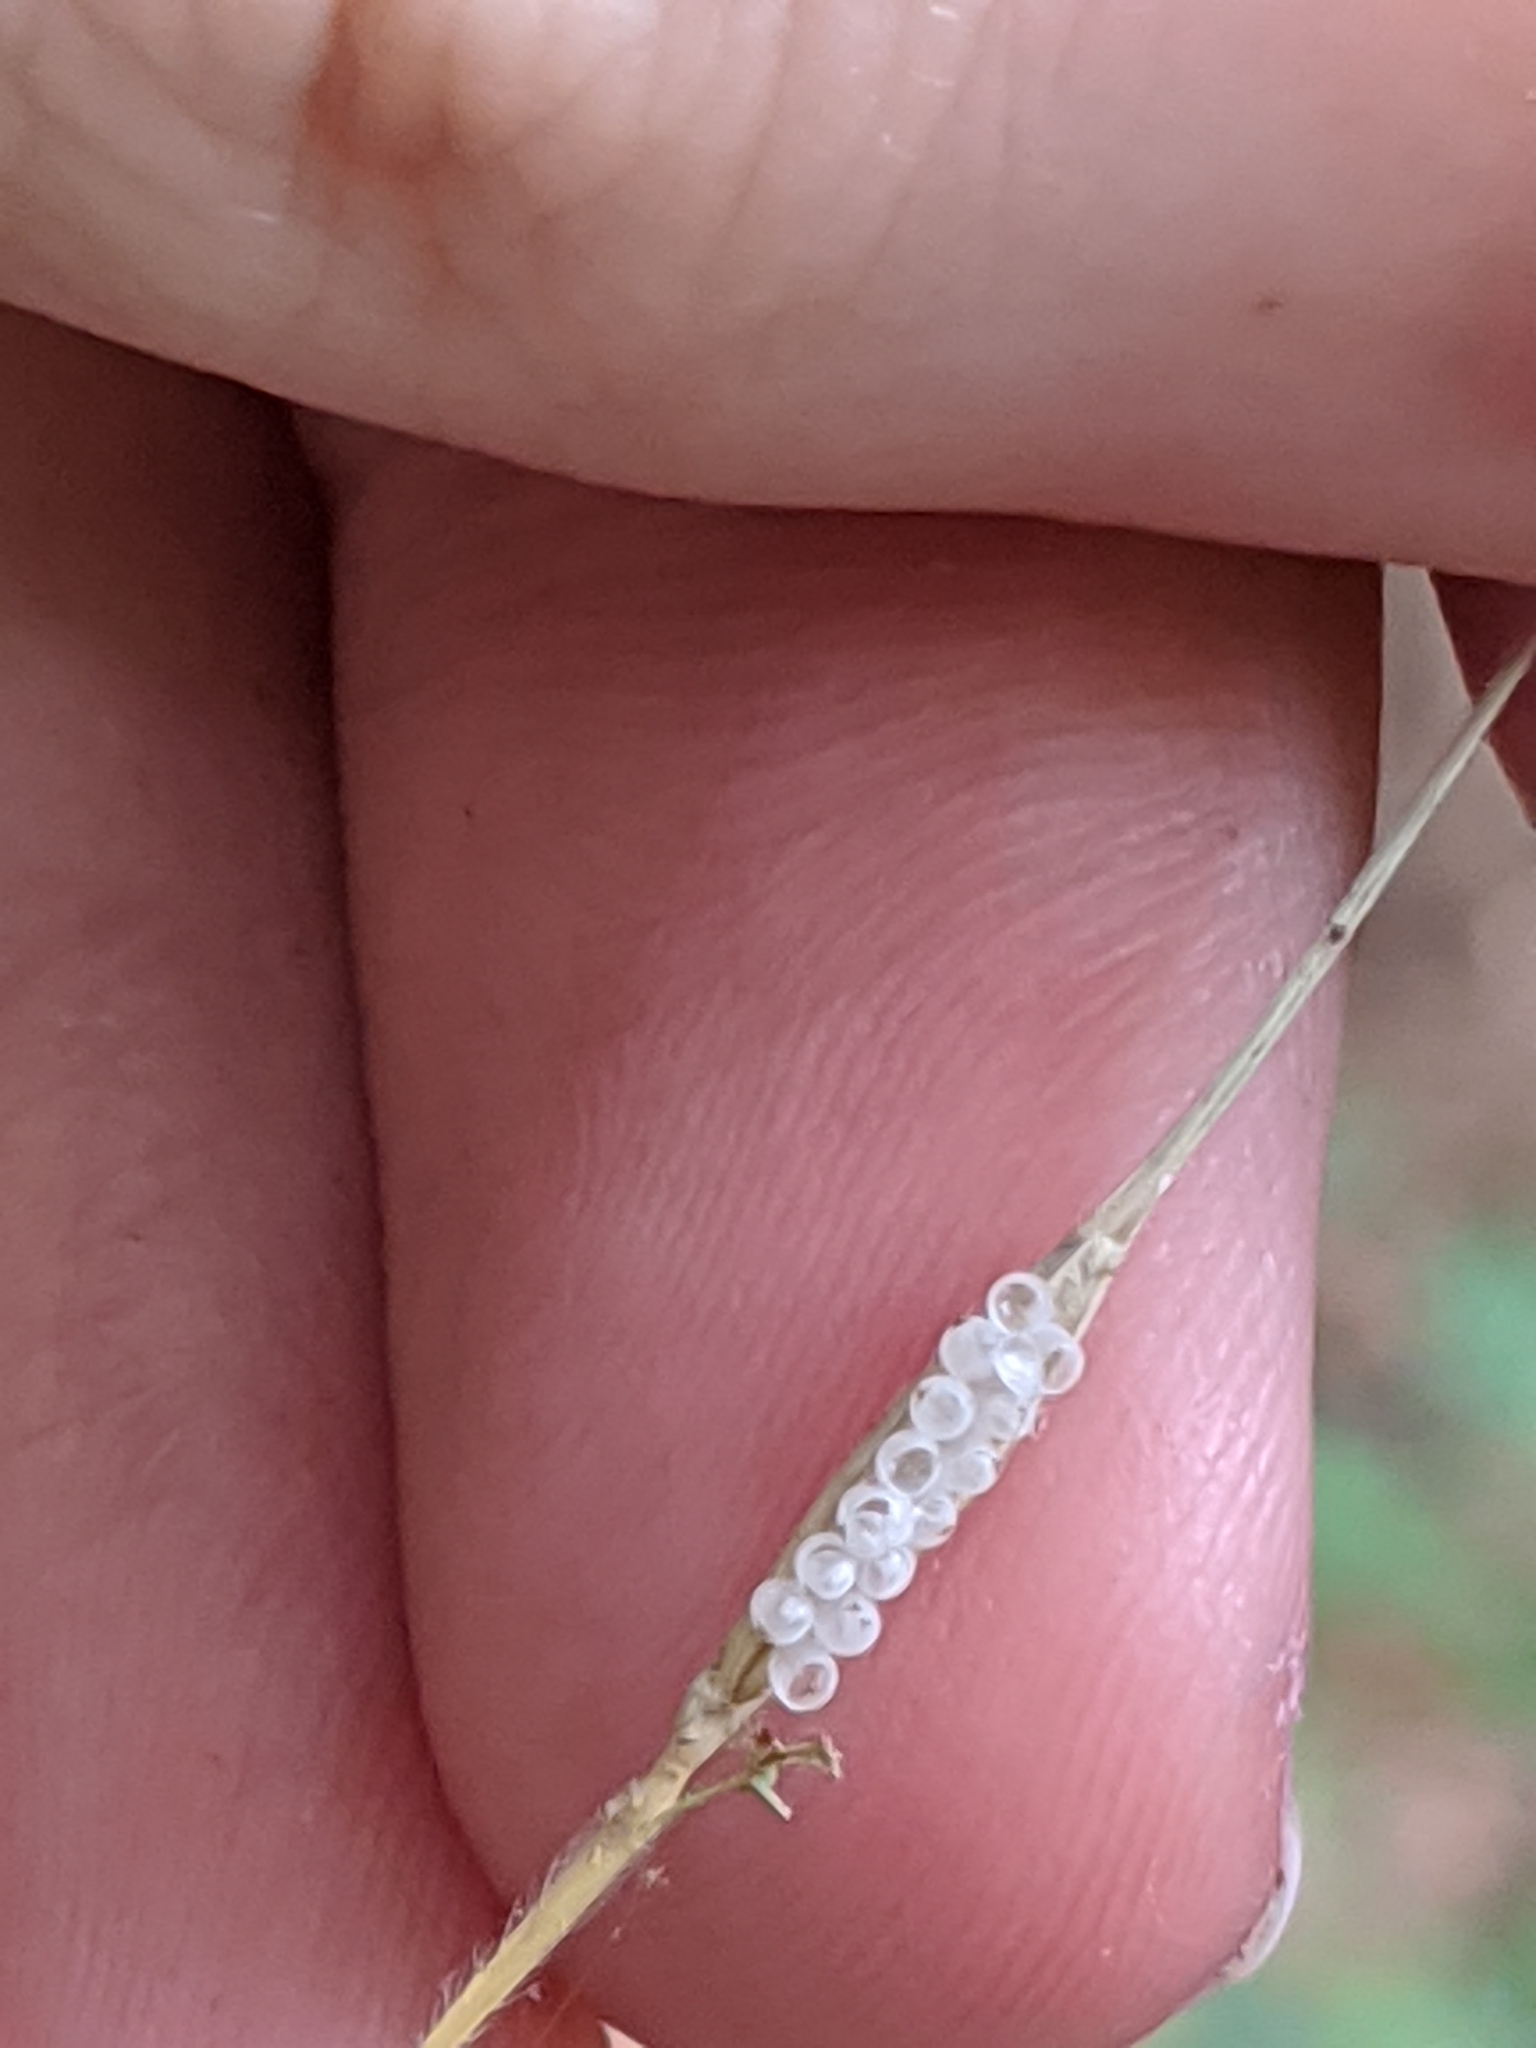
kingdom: Plantae
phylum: Tracheophyta
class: Liliopsida
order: Poales
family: Poaceae
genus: Elymus
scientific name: Elymus hystrix
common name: Bottlebrush grass
